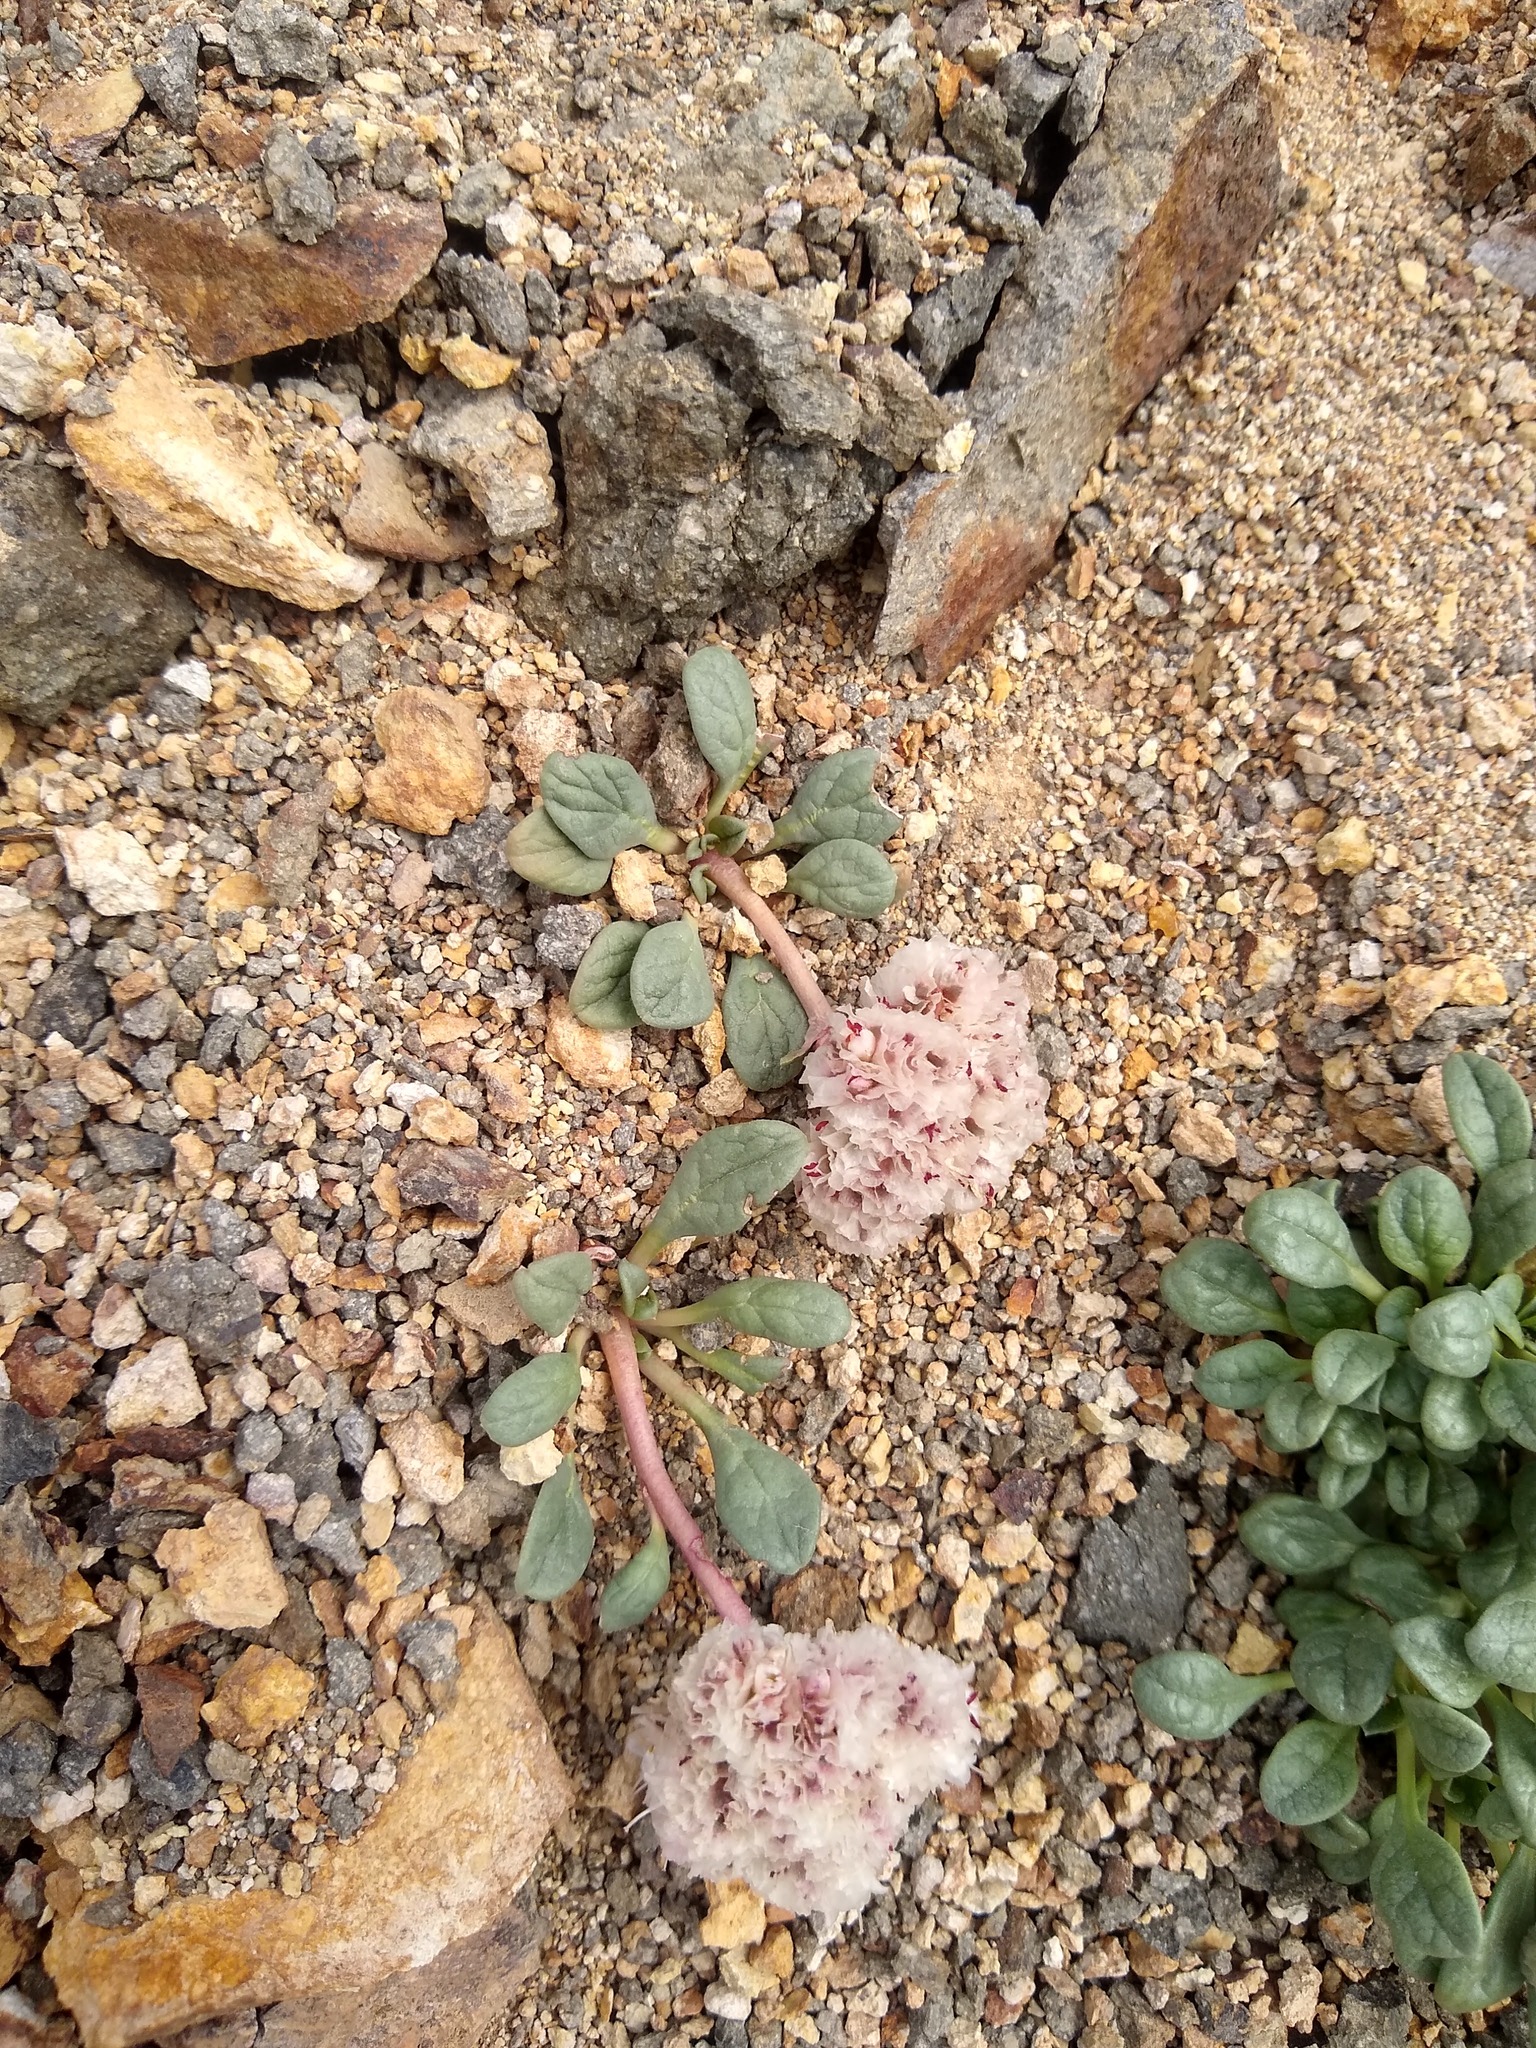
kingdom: Plantae
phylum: Tracheophyta
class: Magnoliopsida
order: Caryophyllales
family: Montiaceae
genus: Calyptridium
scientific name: Calyptridium umbellatum
